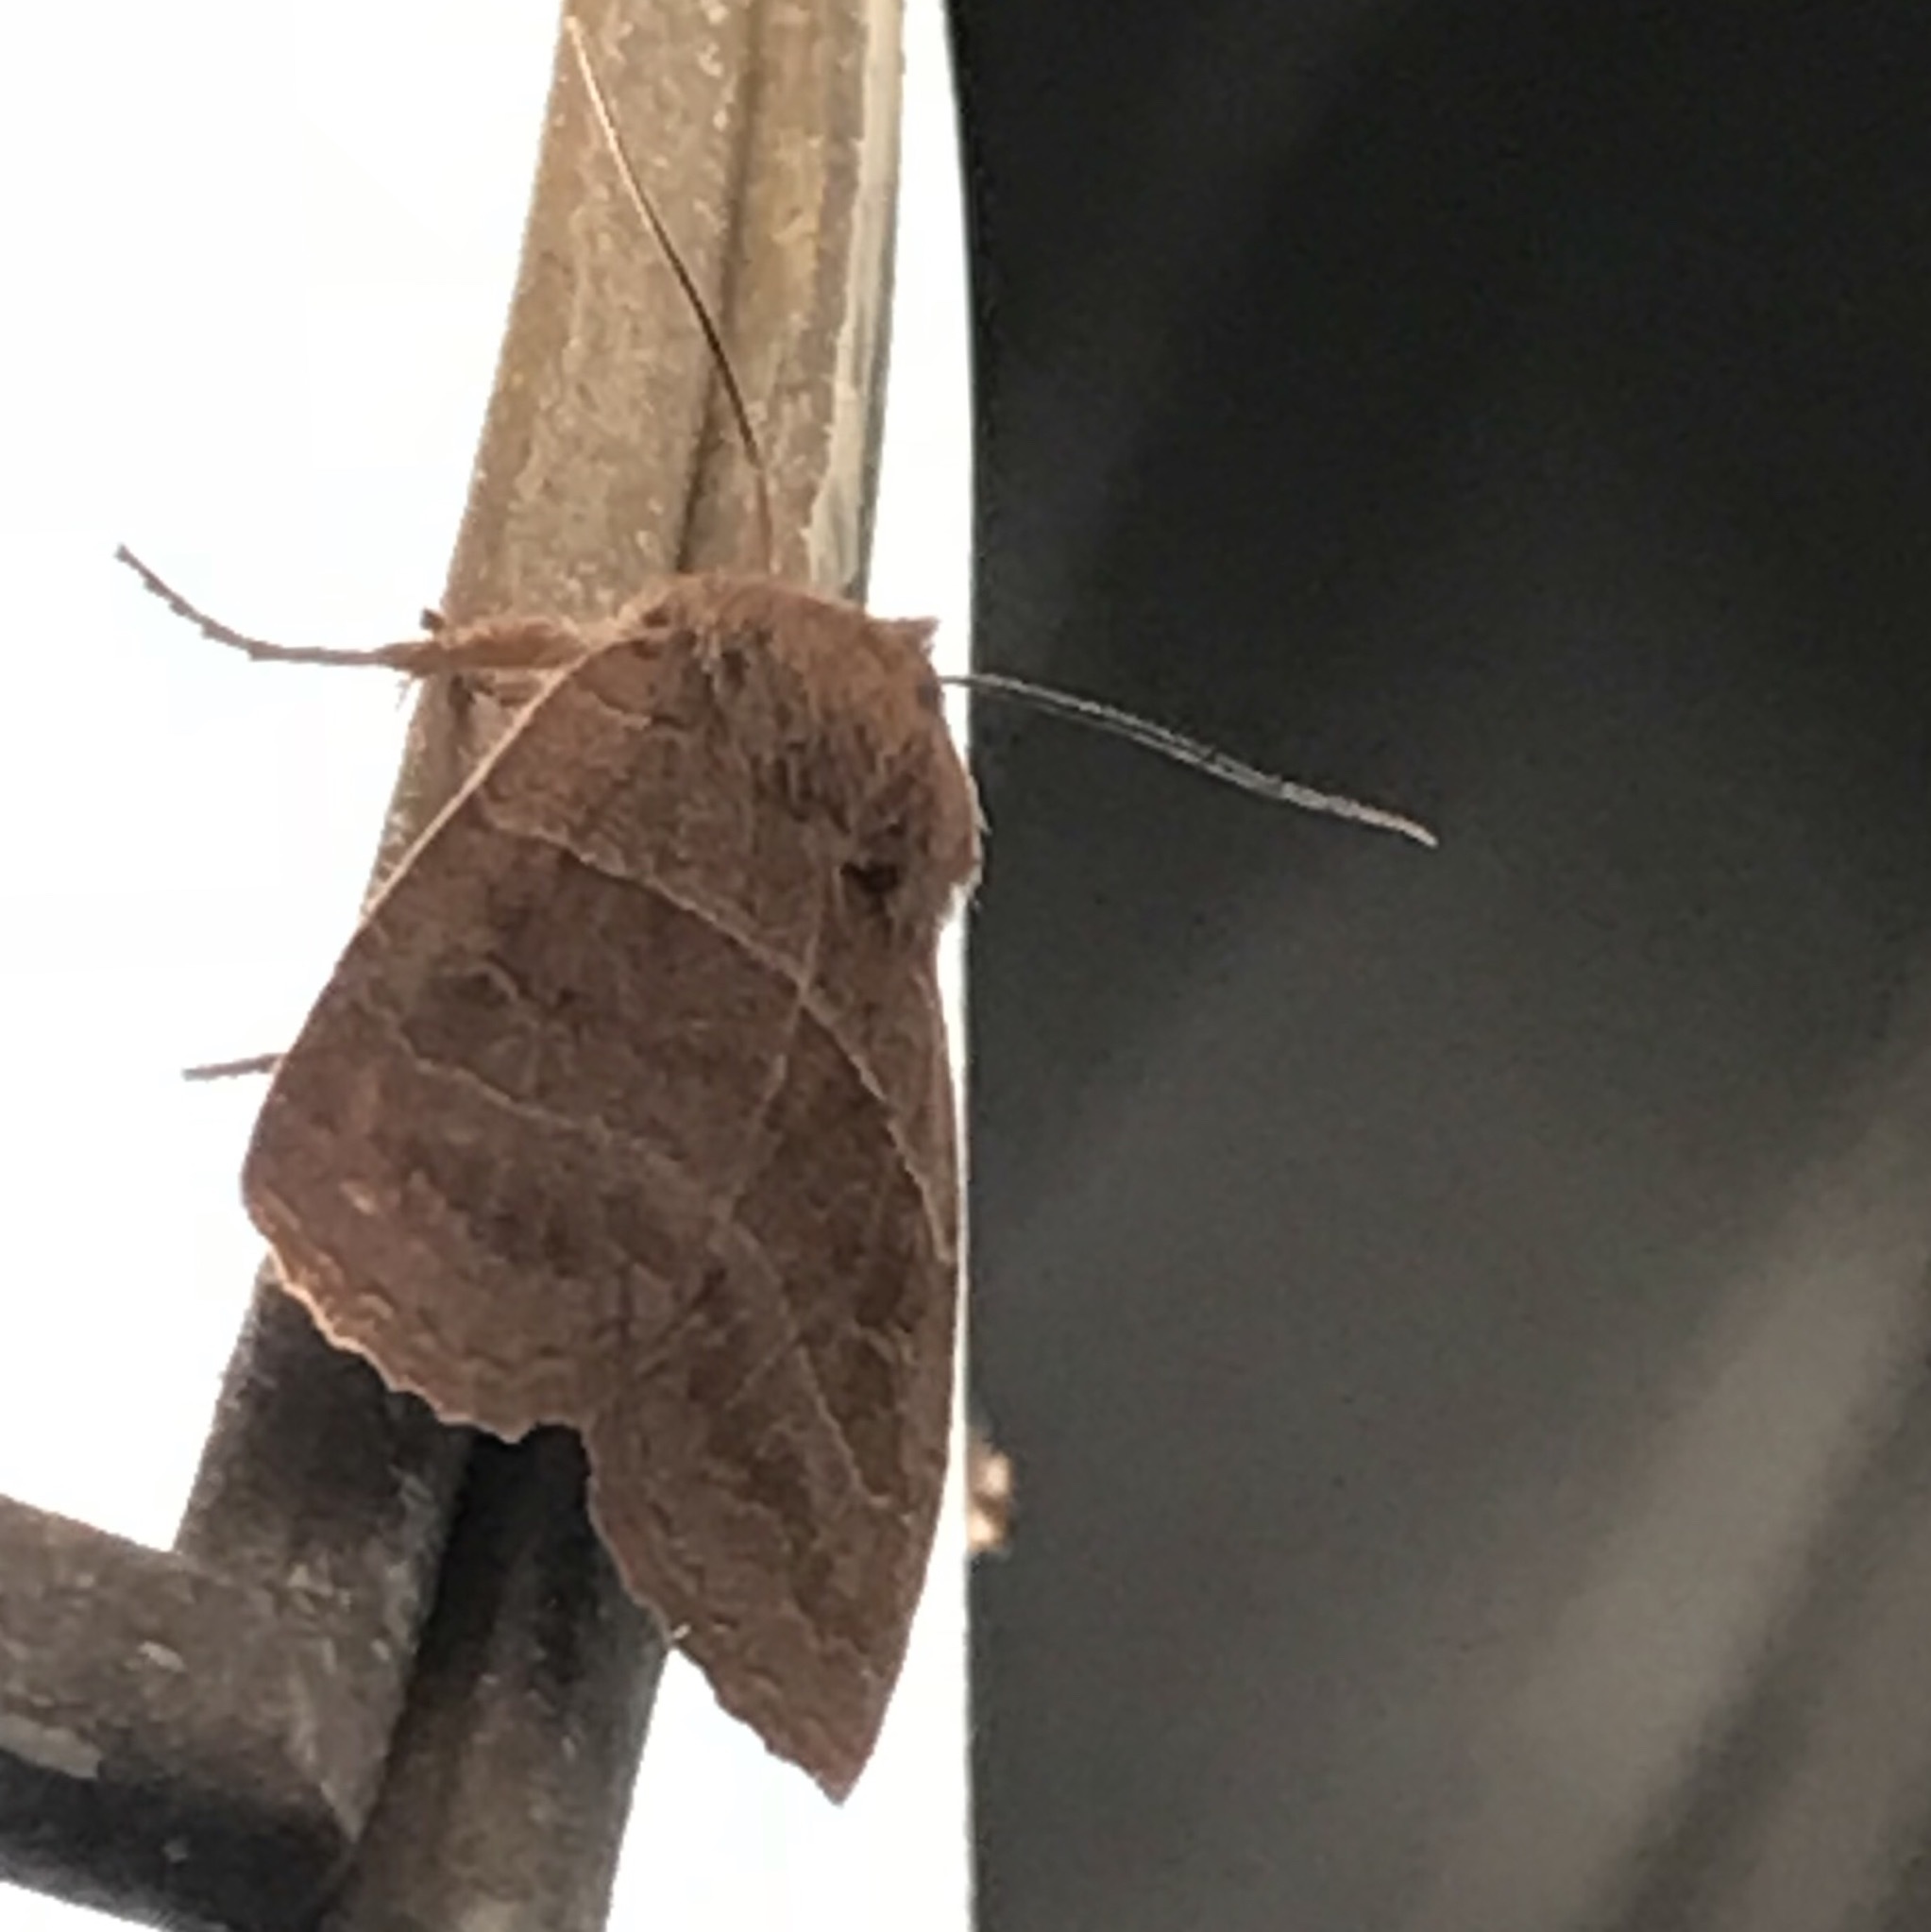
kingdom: Animalia
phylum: Arthropoda
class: Insecta
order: Lepidoptera
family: Noctuidae
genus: Eupsilia
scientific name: Eupsilia morrisoni
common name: Morrison's sallow
